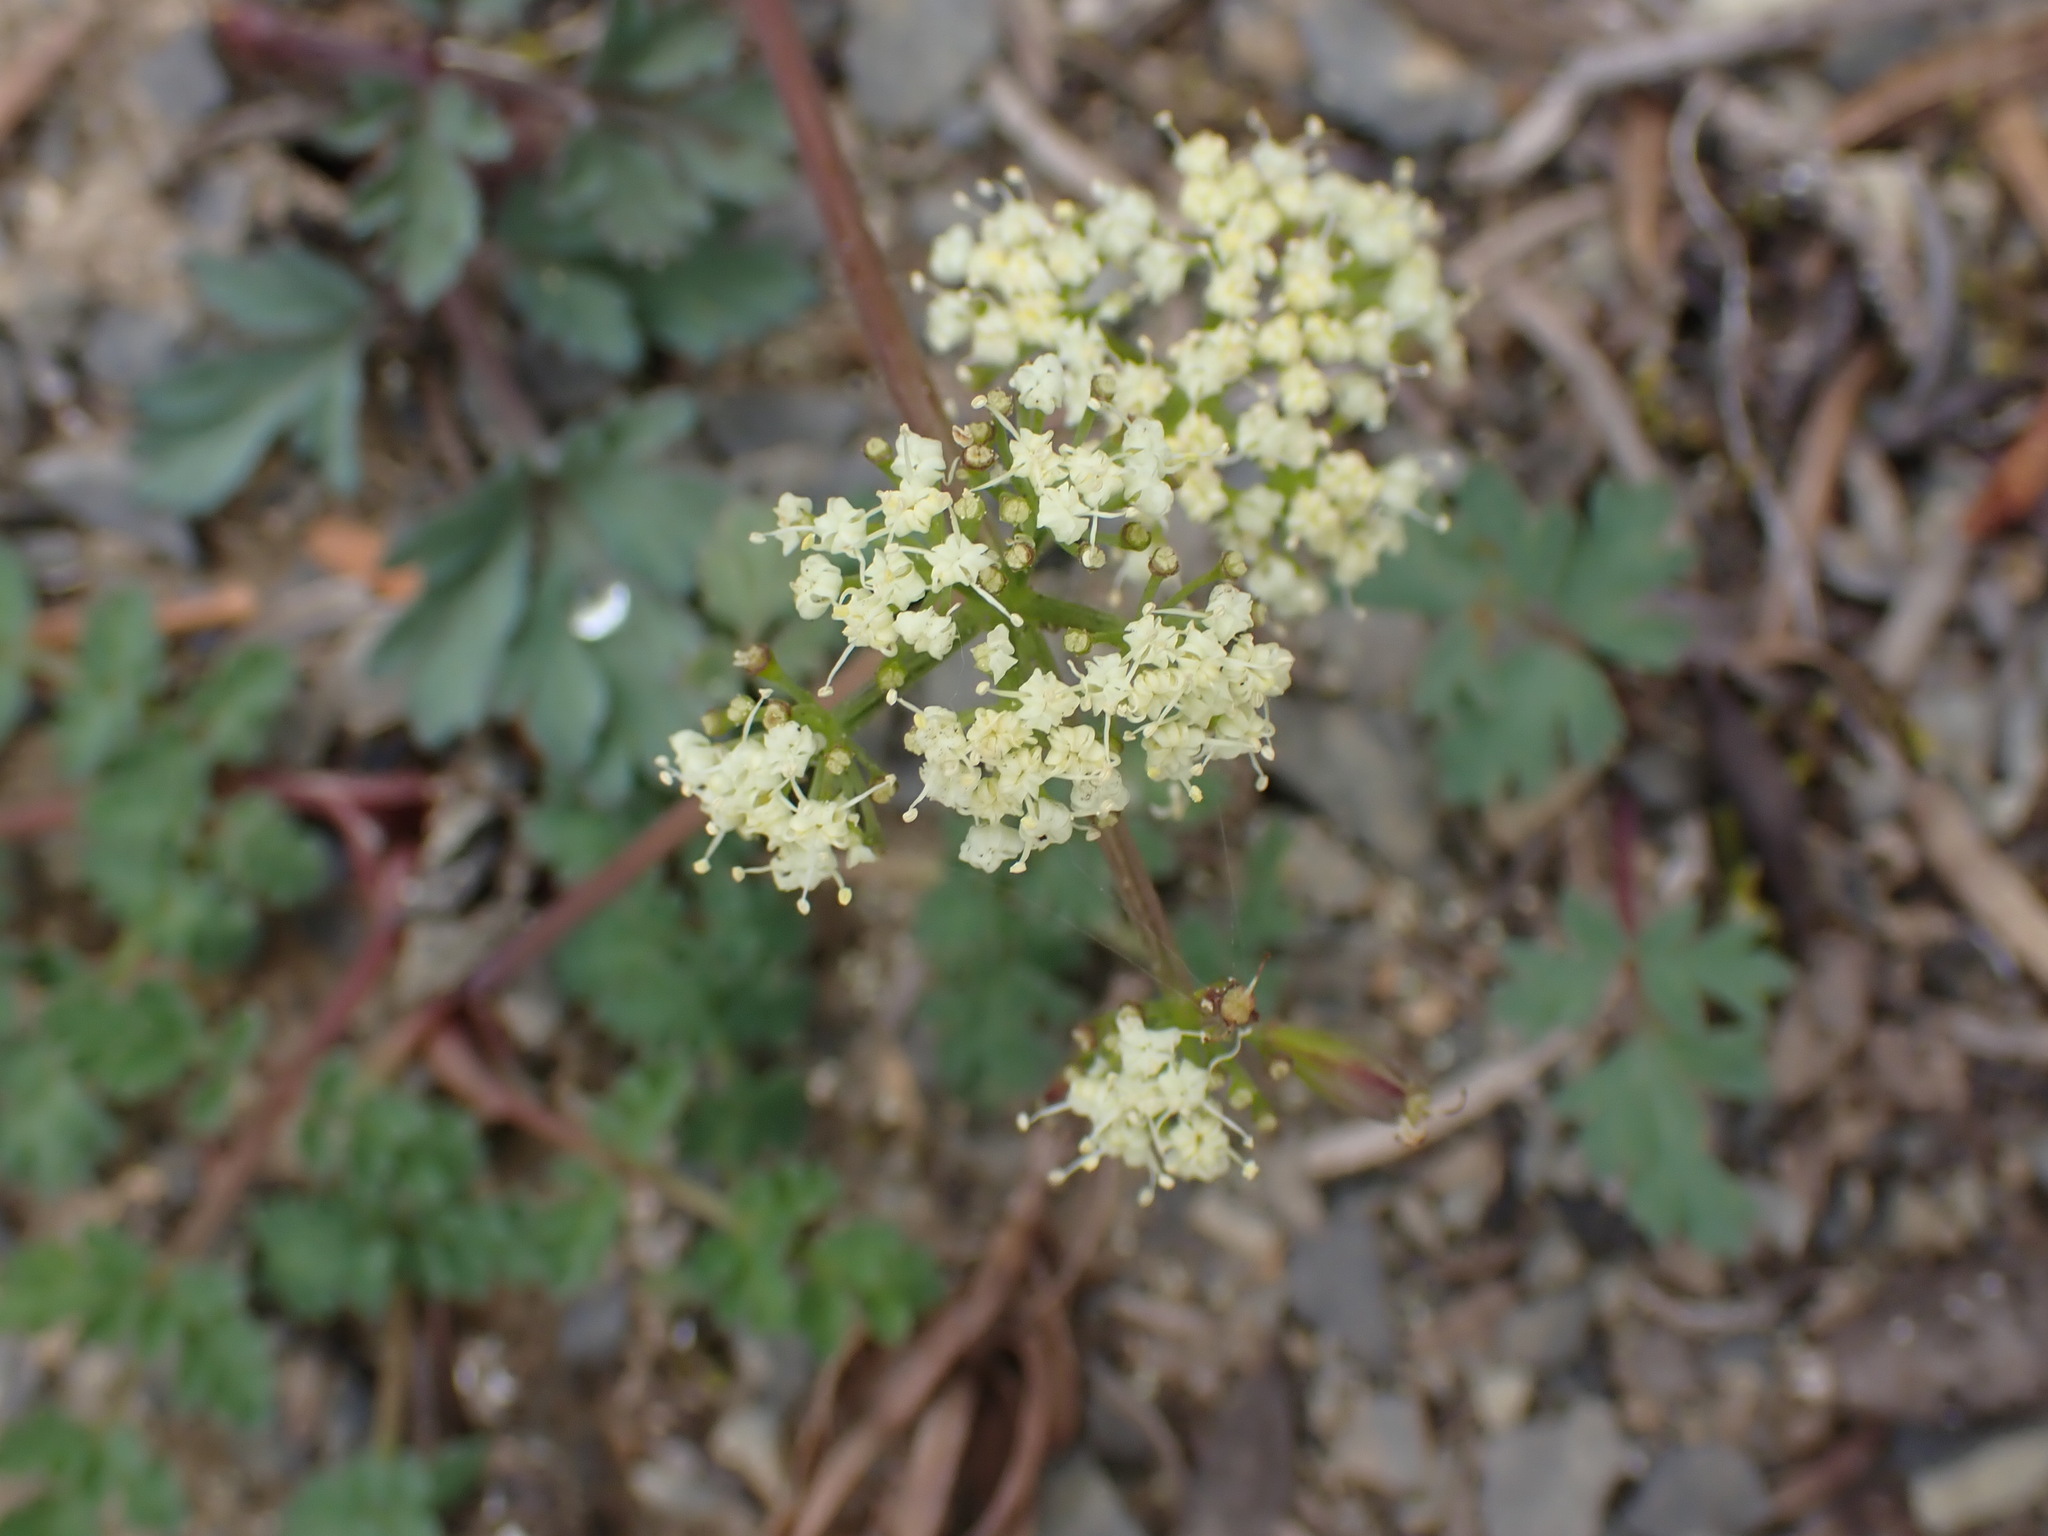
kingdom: Plantae
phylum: Tracheophyta
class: Magnoliopsida
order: Apiales
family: Apiaceae
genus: Lomatium
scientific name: Lomatium martindalei
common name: Cascade desert-parsley
